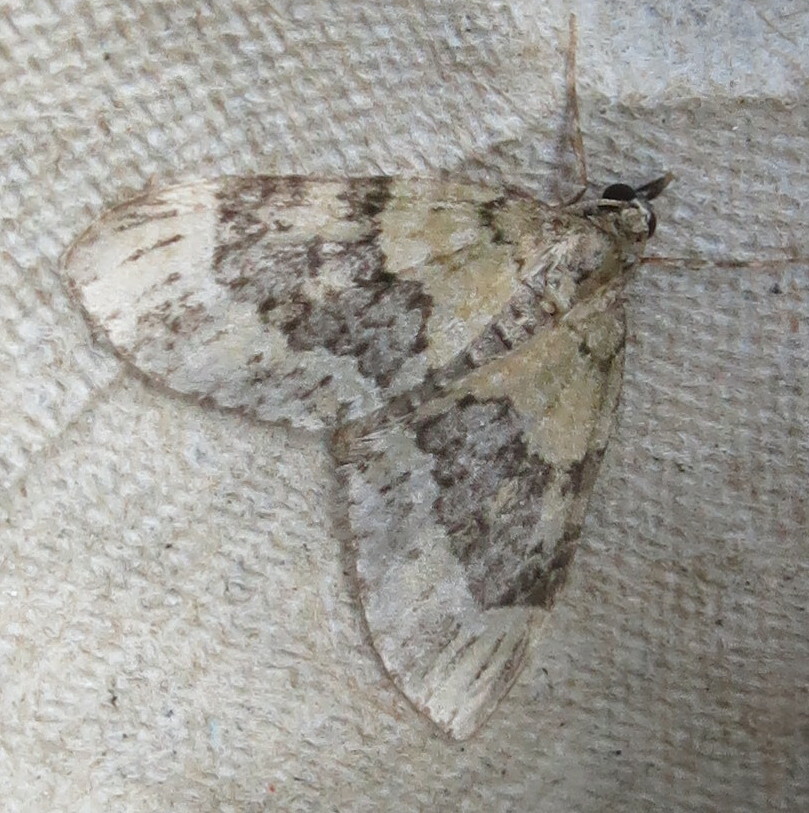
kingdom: Animalia
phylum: Arthropoda
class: Insecta
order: Lepidoptera
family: Geometridae
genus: Acasis
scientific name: Acasis viretata
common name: Yellow-barred brindle
